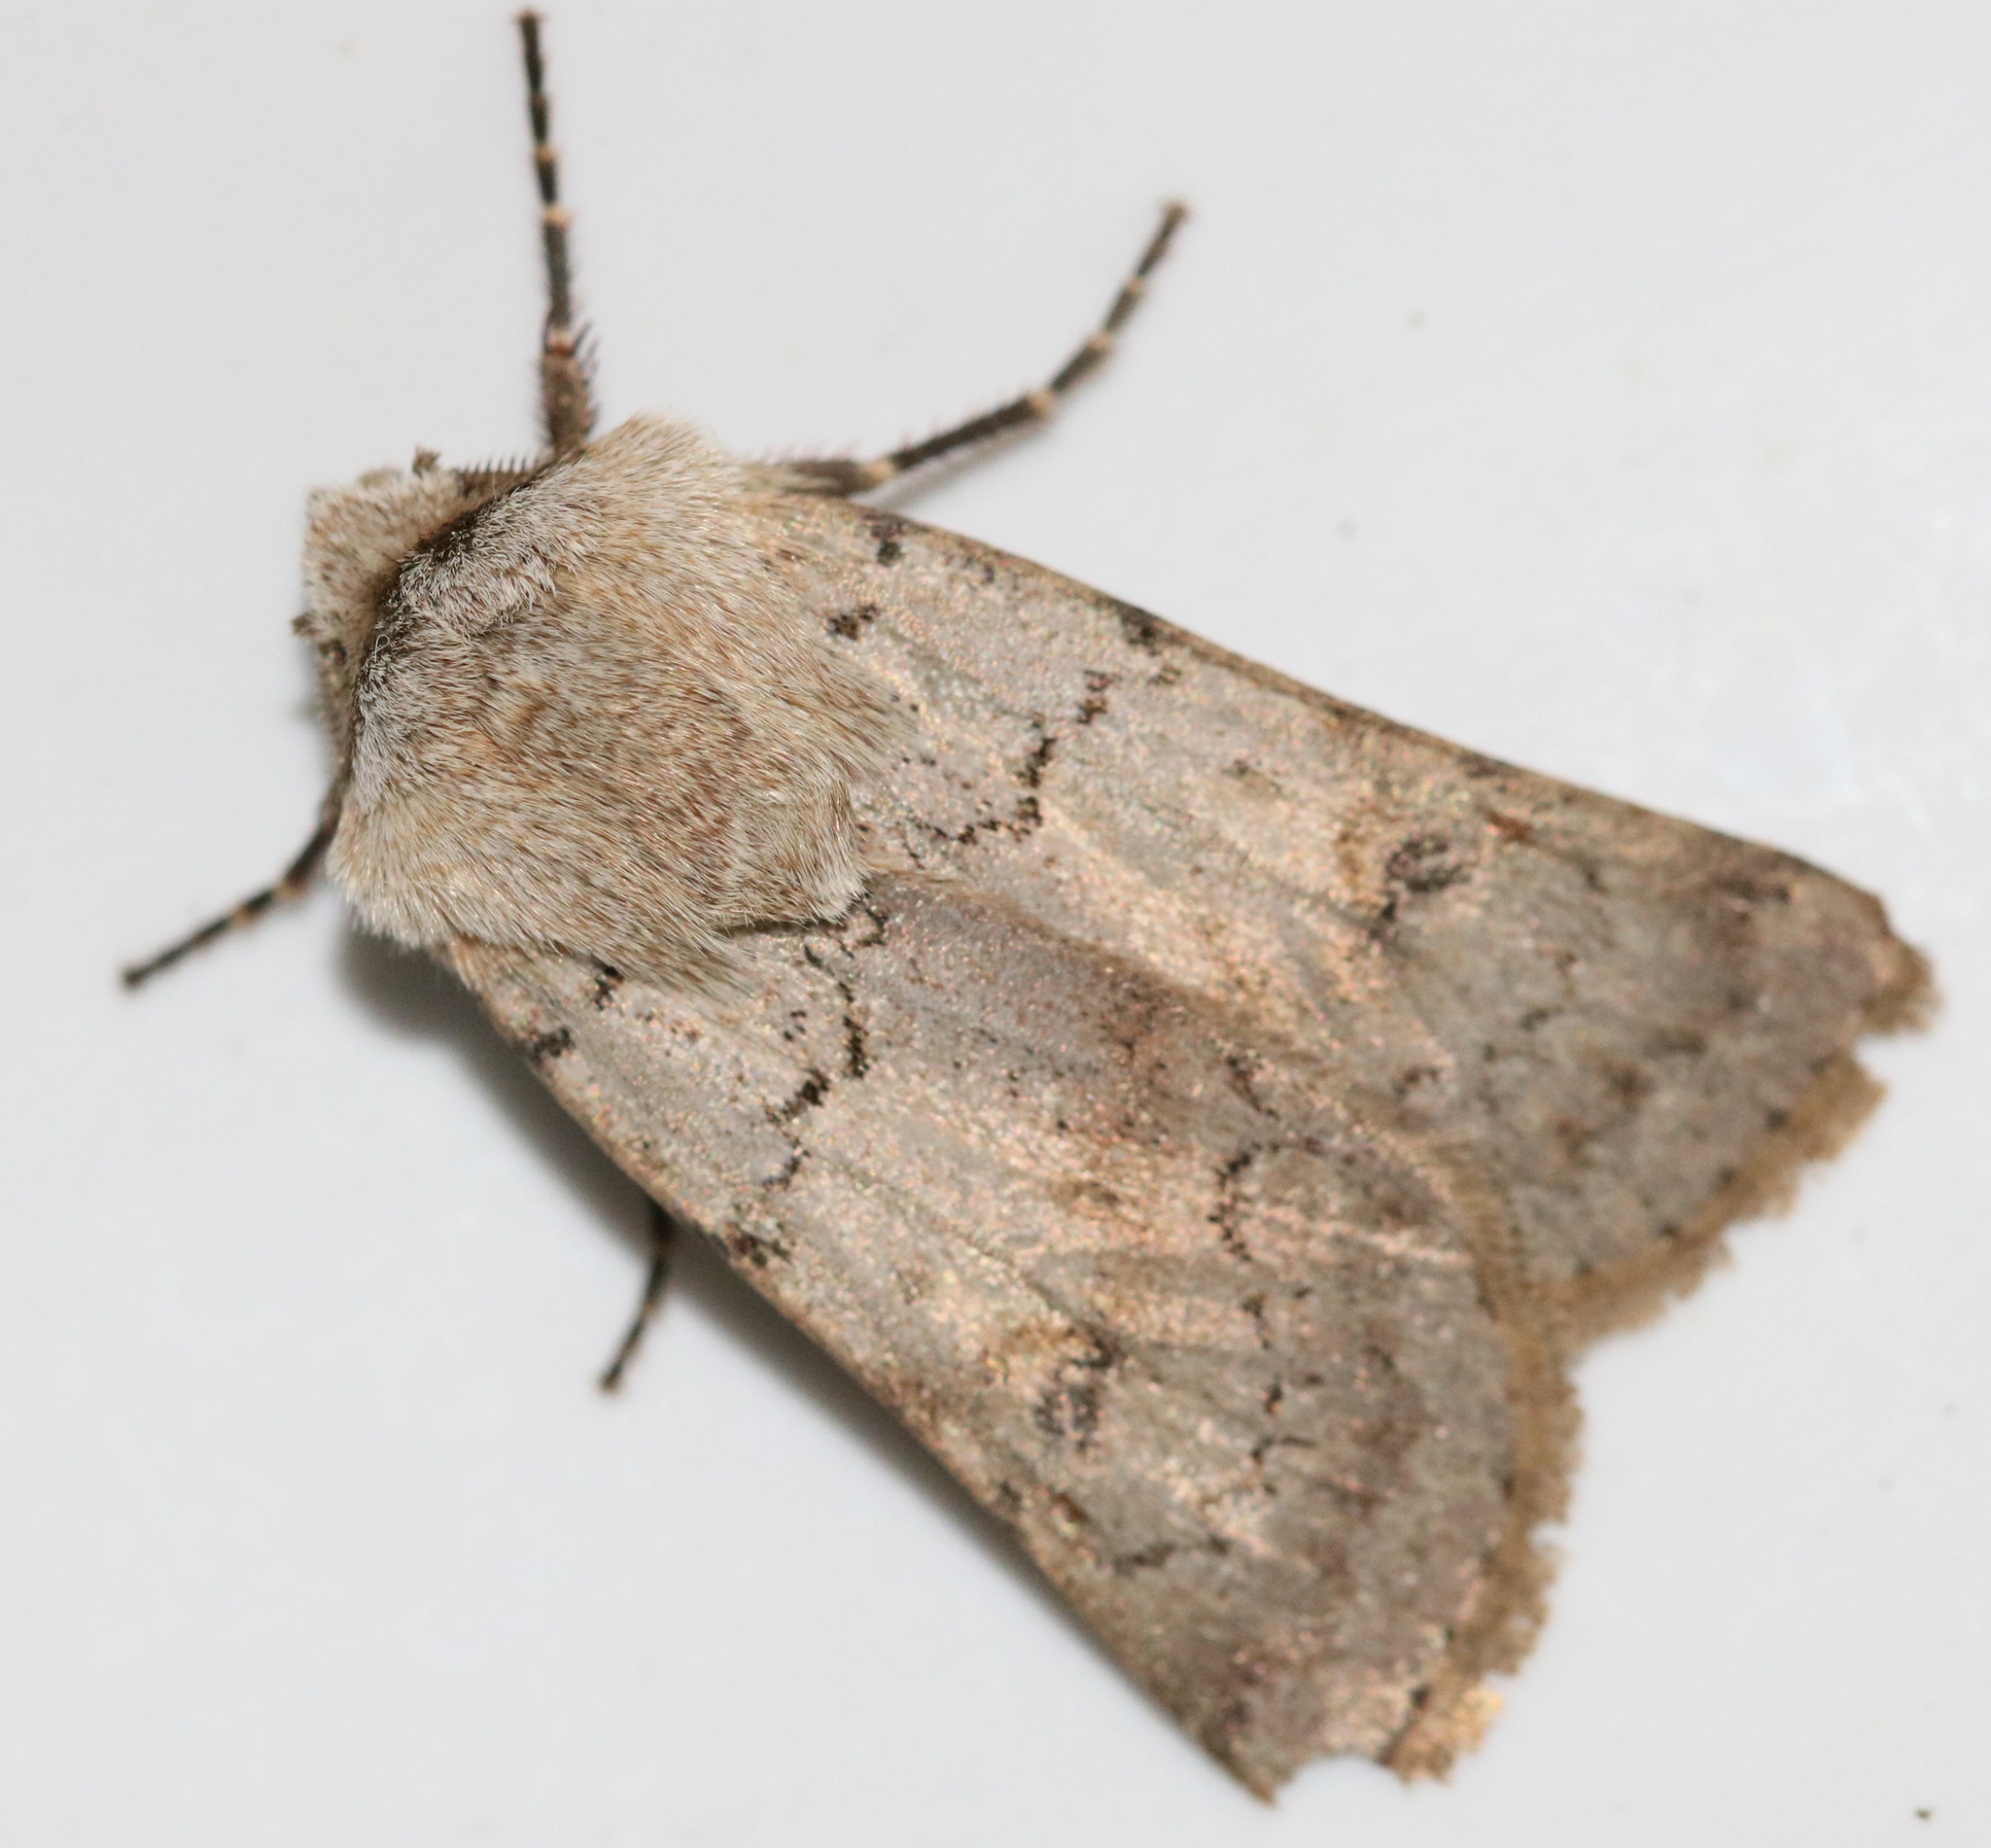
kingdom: Animalia
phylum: Arthropoda
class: Insecta
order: Lepidoptera
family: Noctuidae
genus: Agrotis
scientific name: Agrotis cinerea
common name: Light feathered rustic
